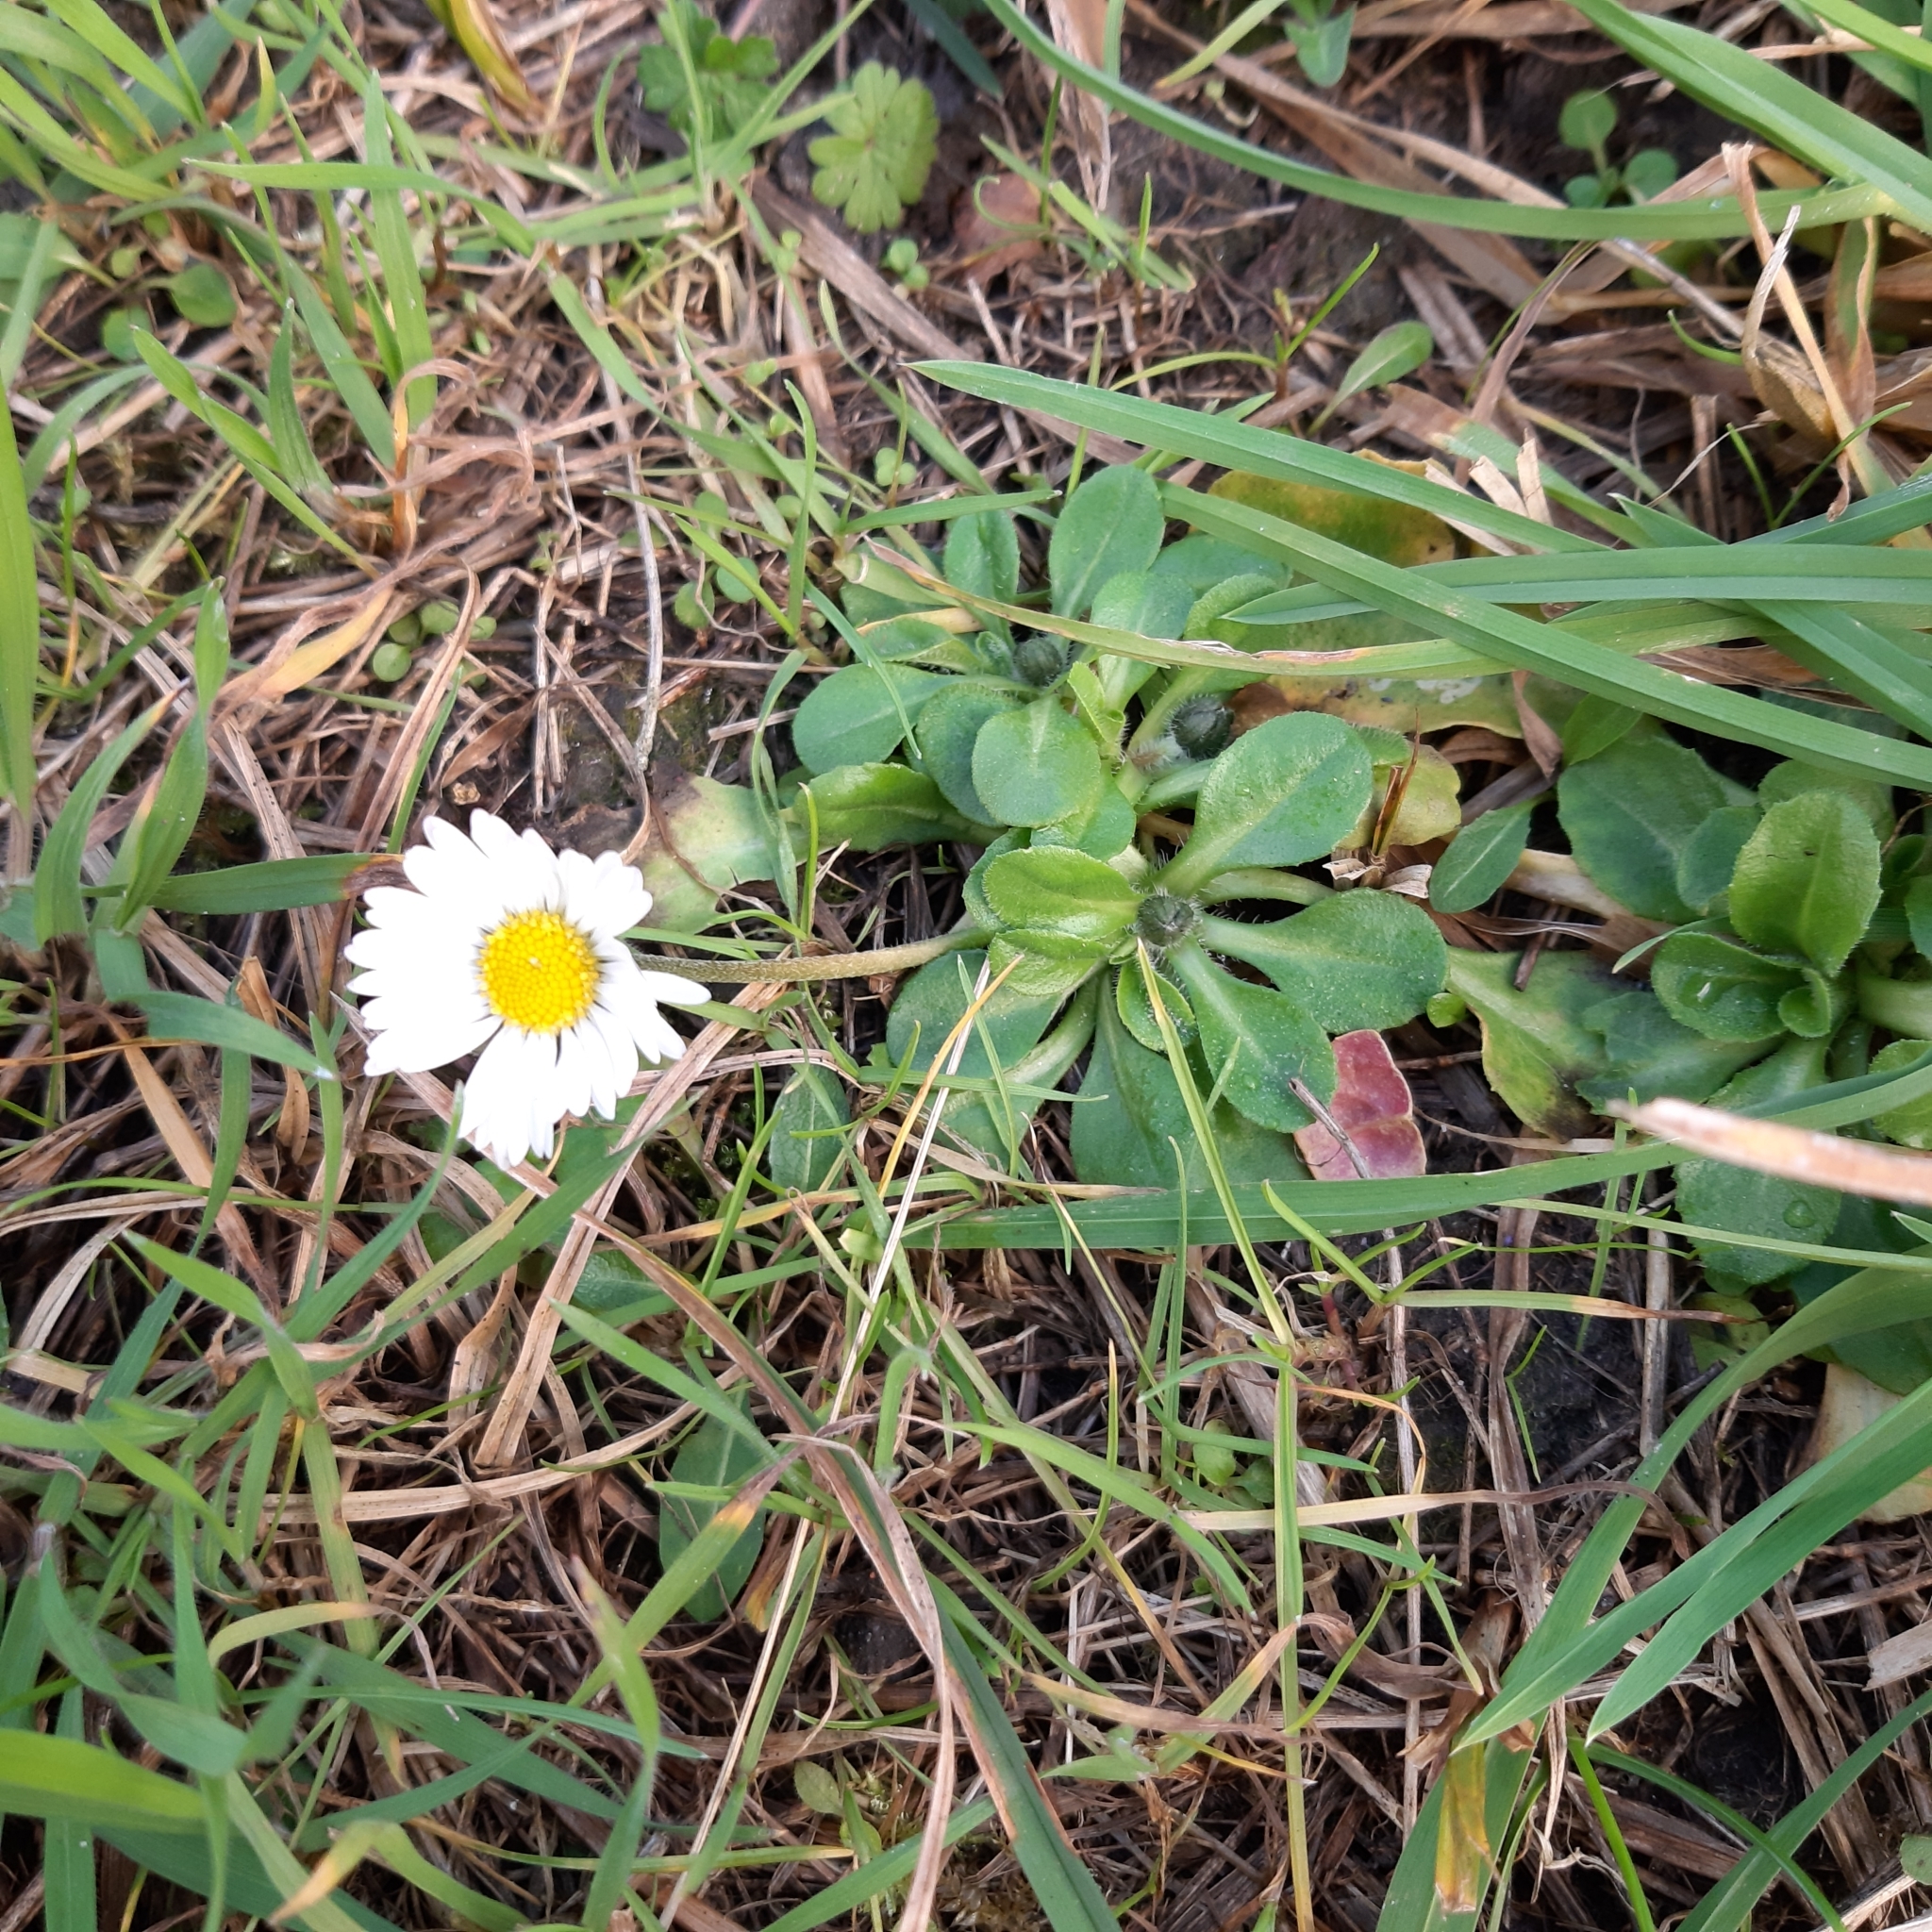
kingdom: Plantae
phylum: Tracheophyta
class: Magnoliopsida
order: Asterales
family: Asteraceae
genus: Bellis
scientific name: Bellis perennis
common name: Lawndaisy
